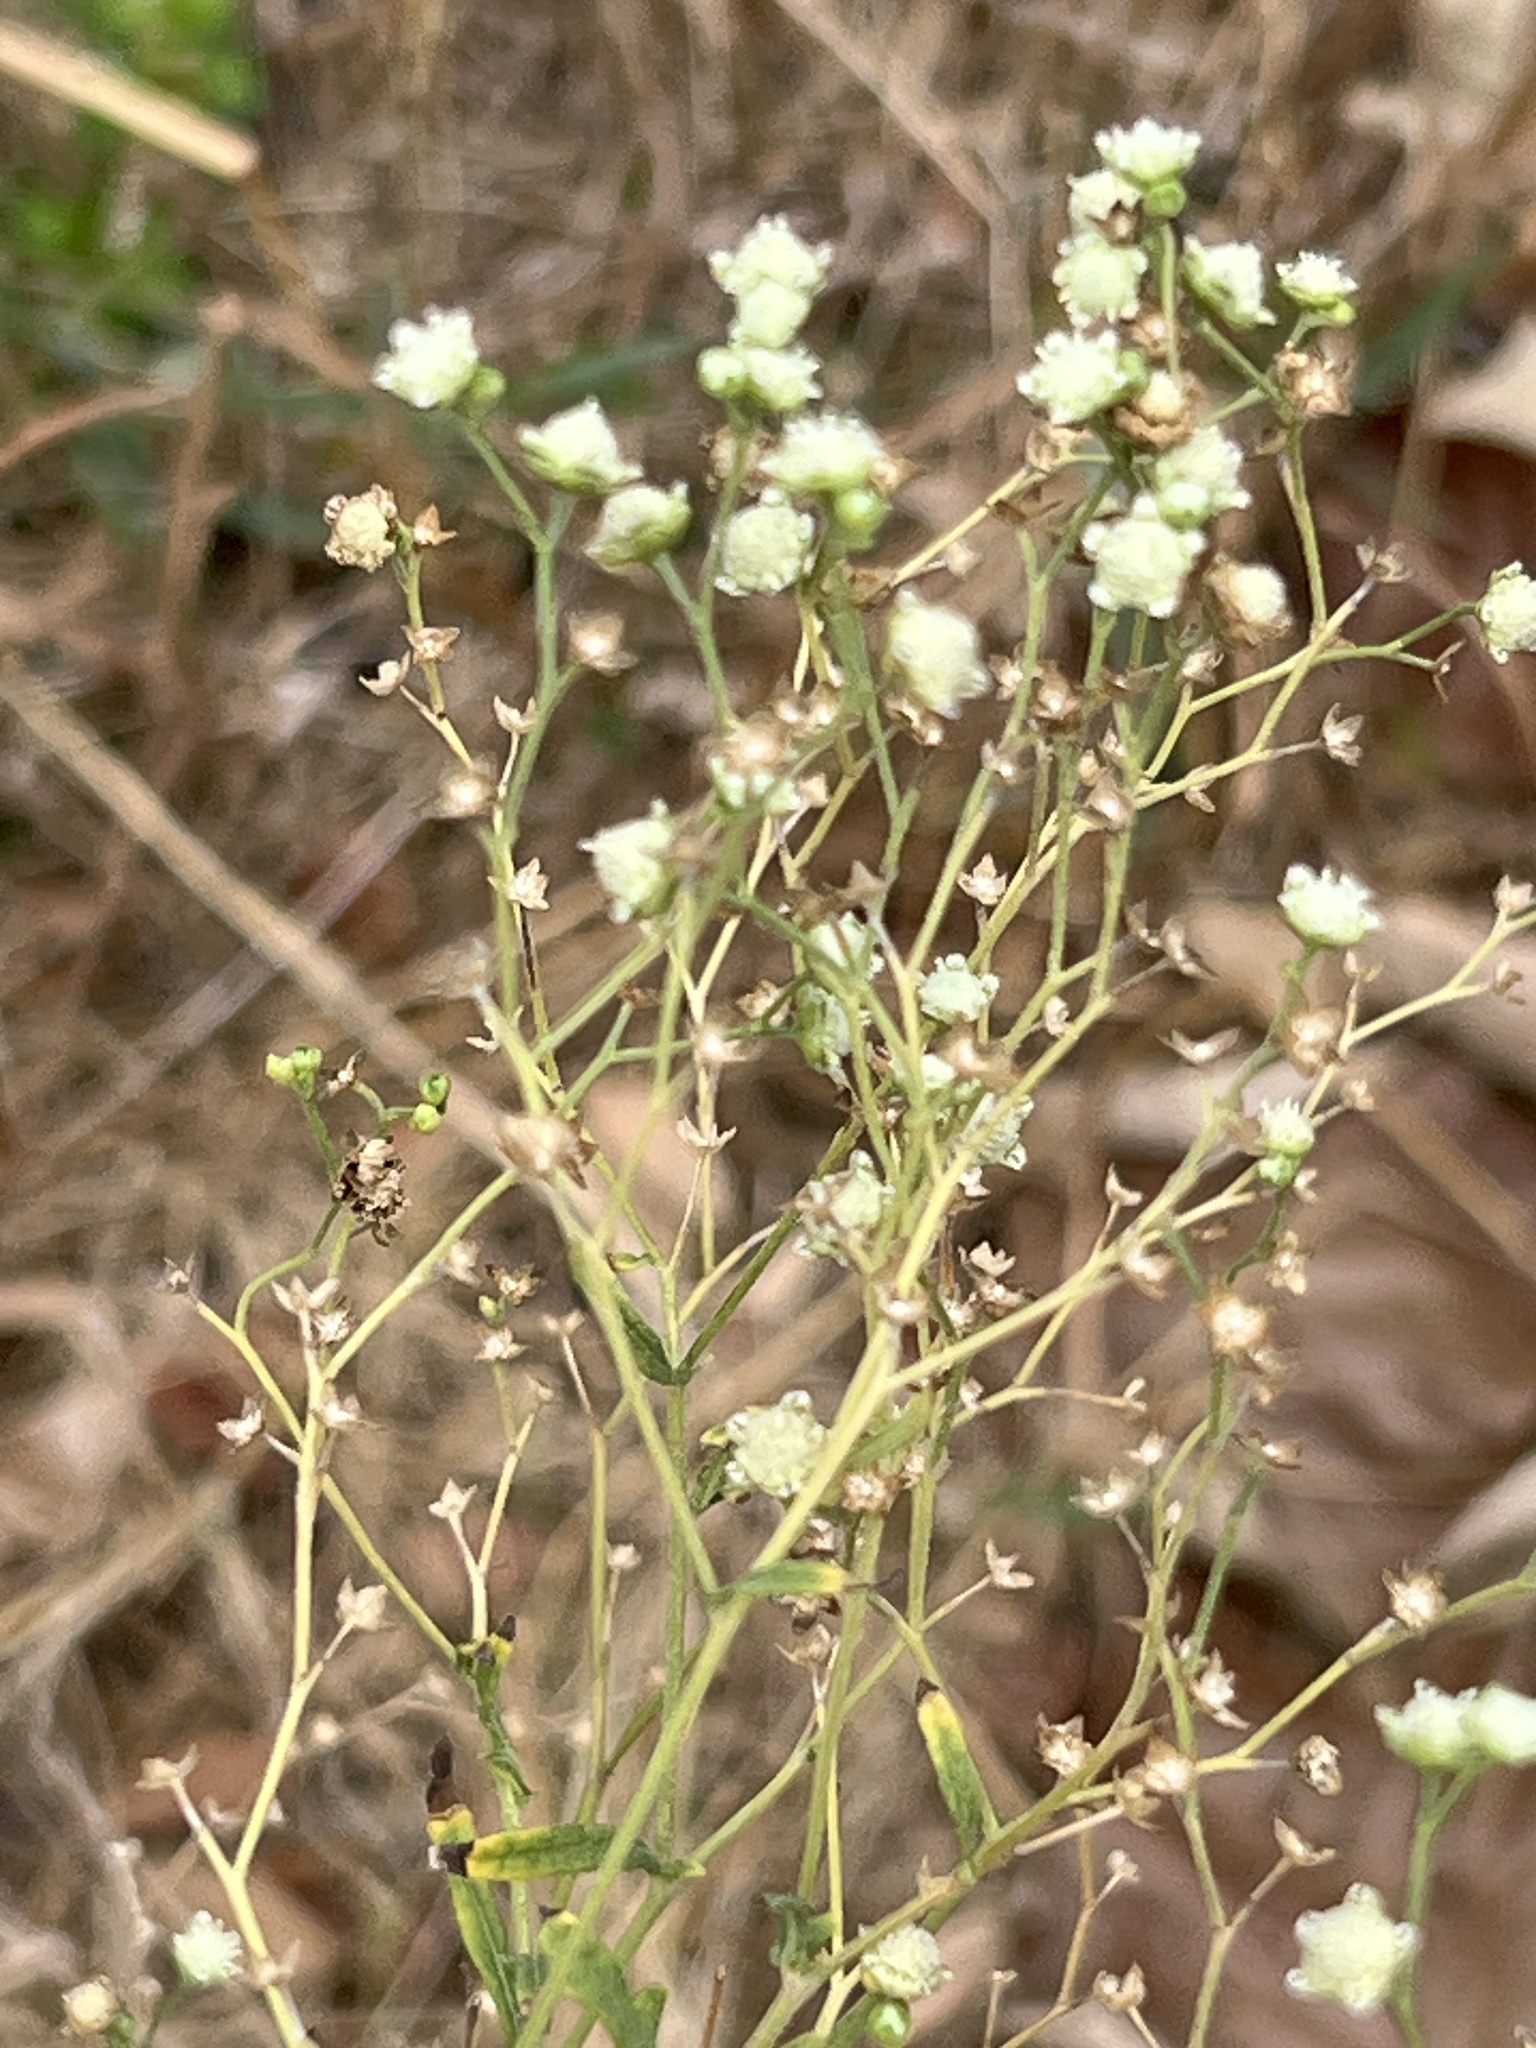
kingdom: Plantae
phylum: Tracheophyta
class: Magnoliopsida
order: Asterales
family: Asteraceae
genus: Parthenium
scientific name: Parthenium hysterophorus
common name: Santa maria feverfew
